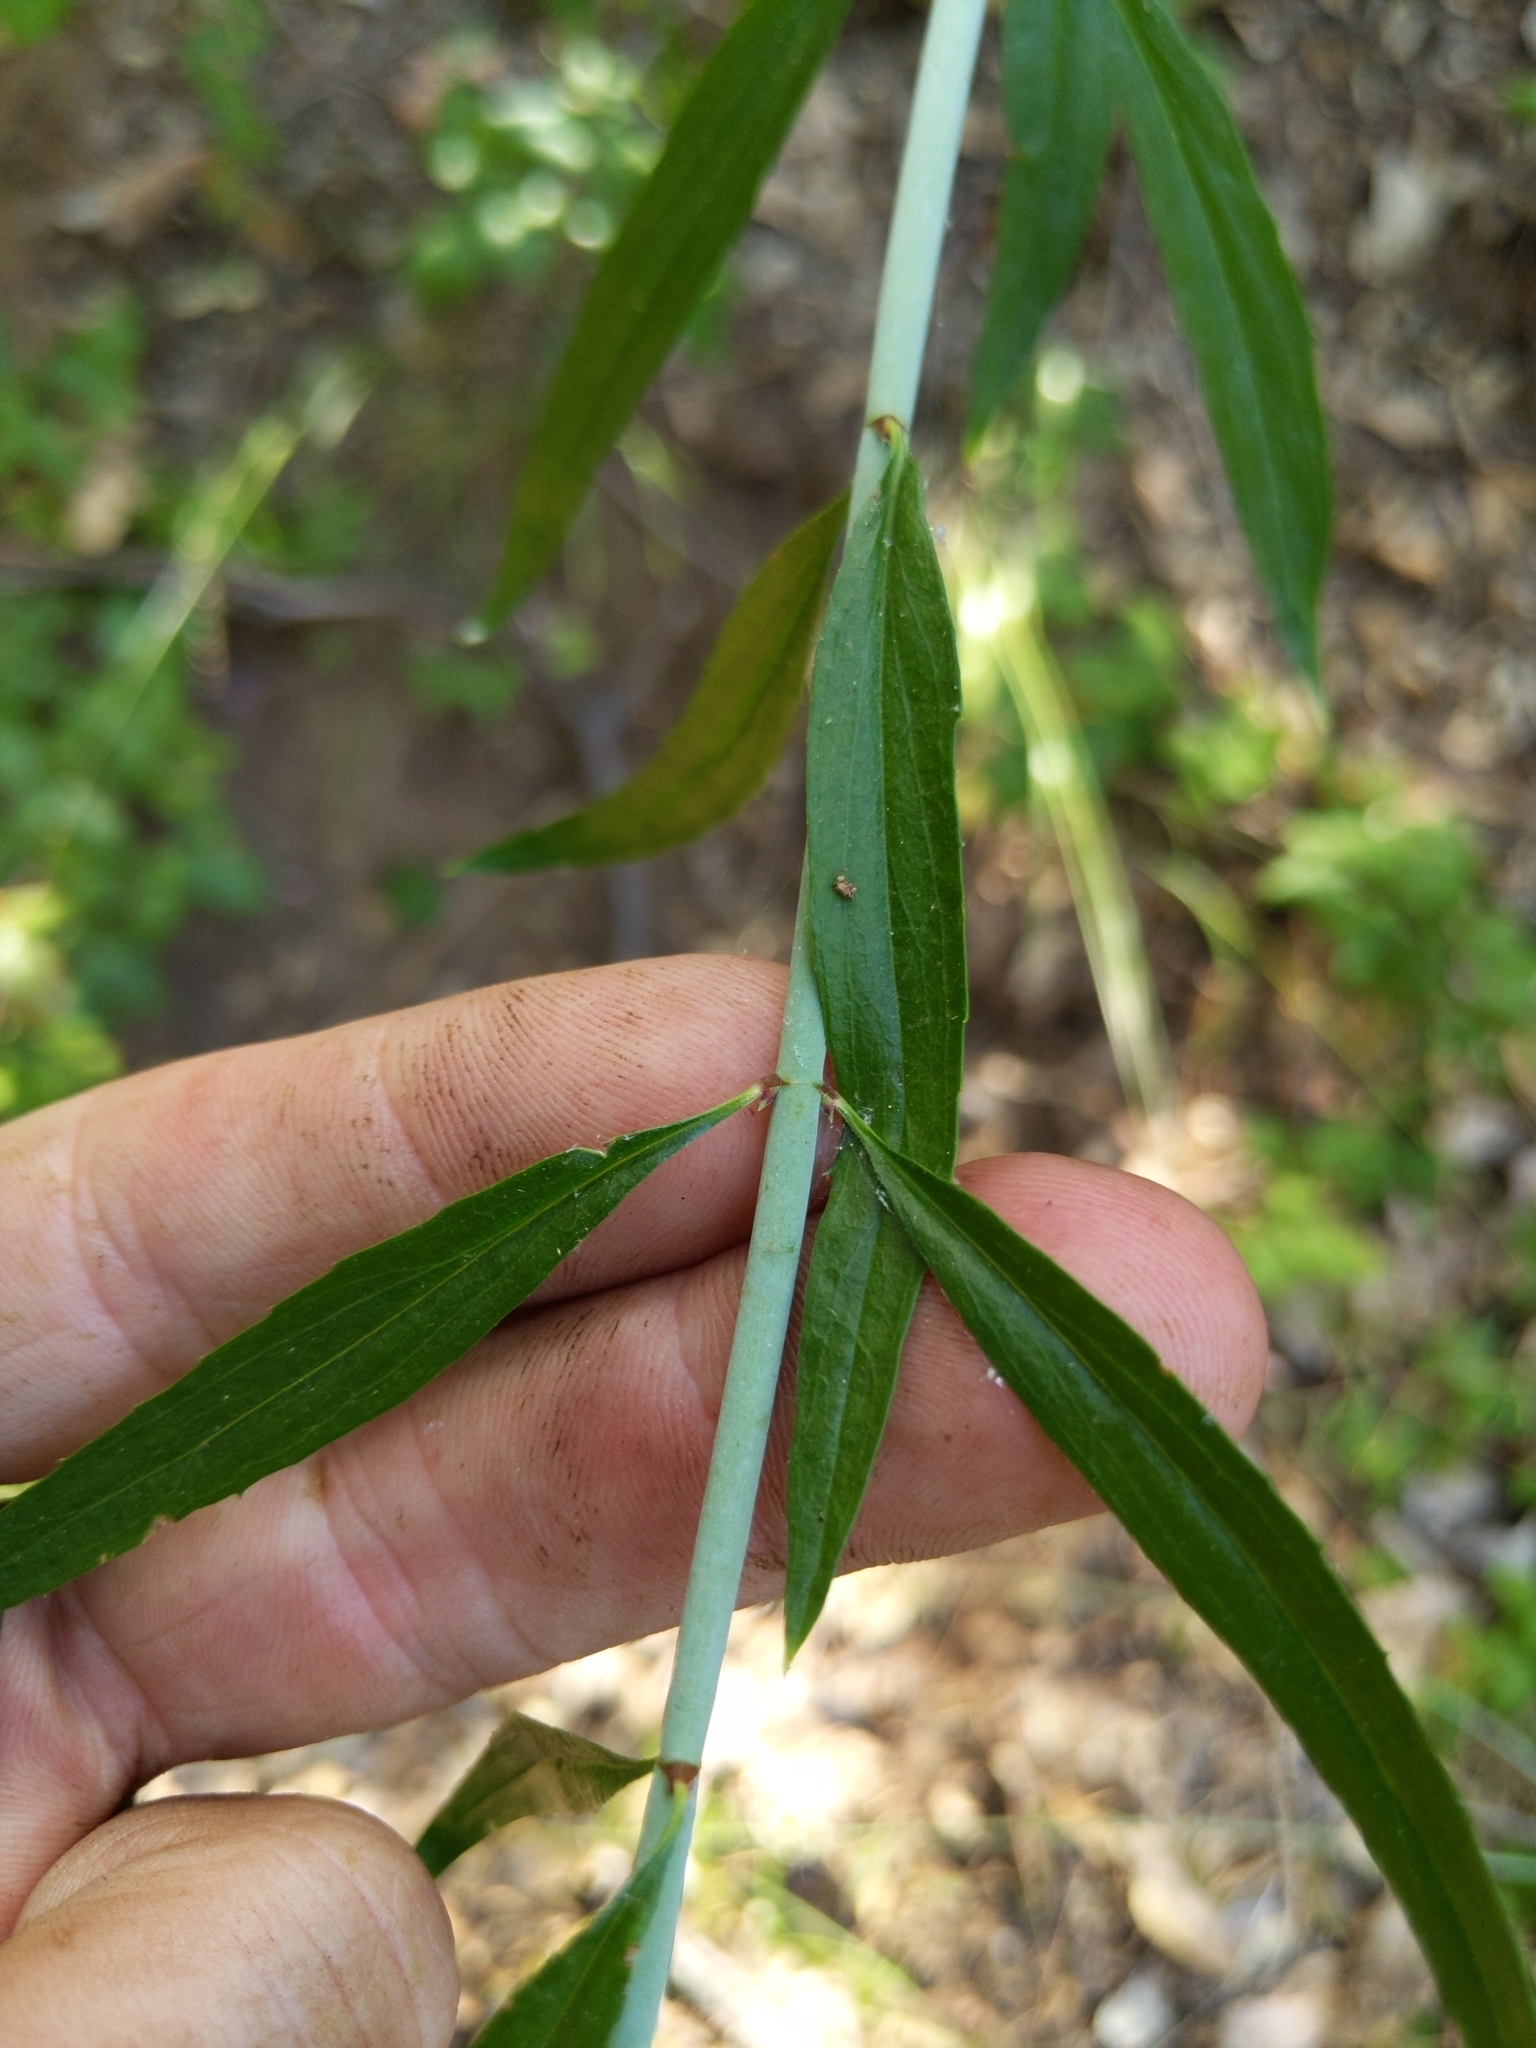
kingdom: Plantae
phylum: Tracheophyta
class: Magnoliopsida
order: Lamiales
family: Plantaginaceae
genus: Keckiella
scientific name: Keckiella breviflora
